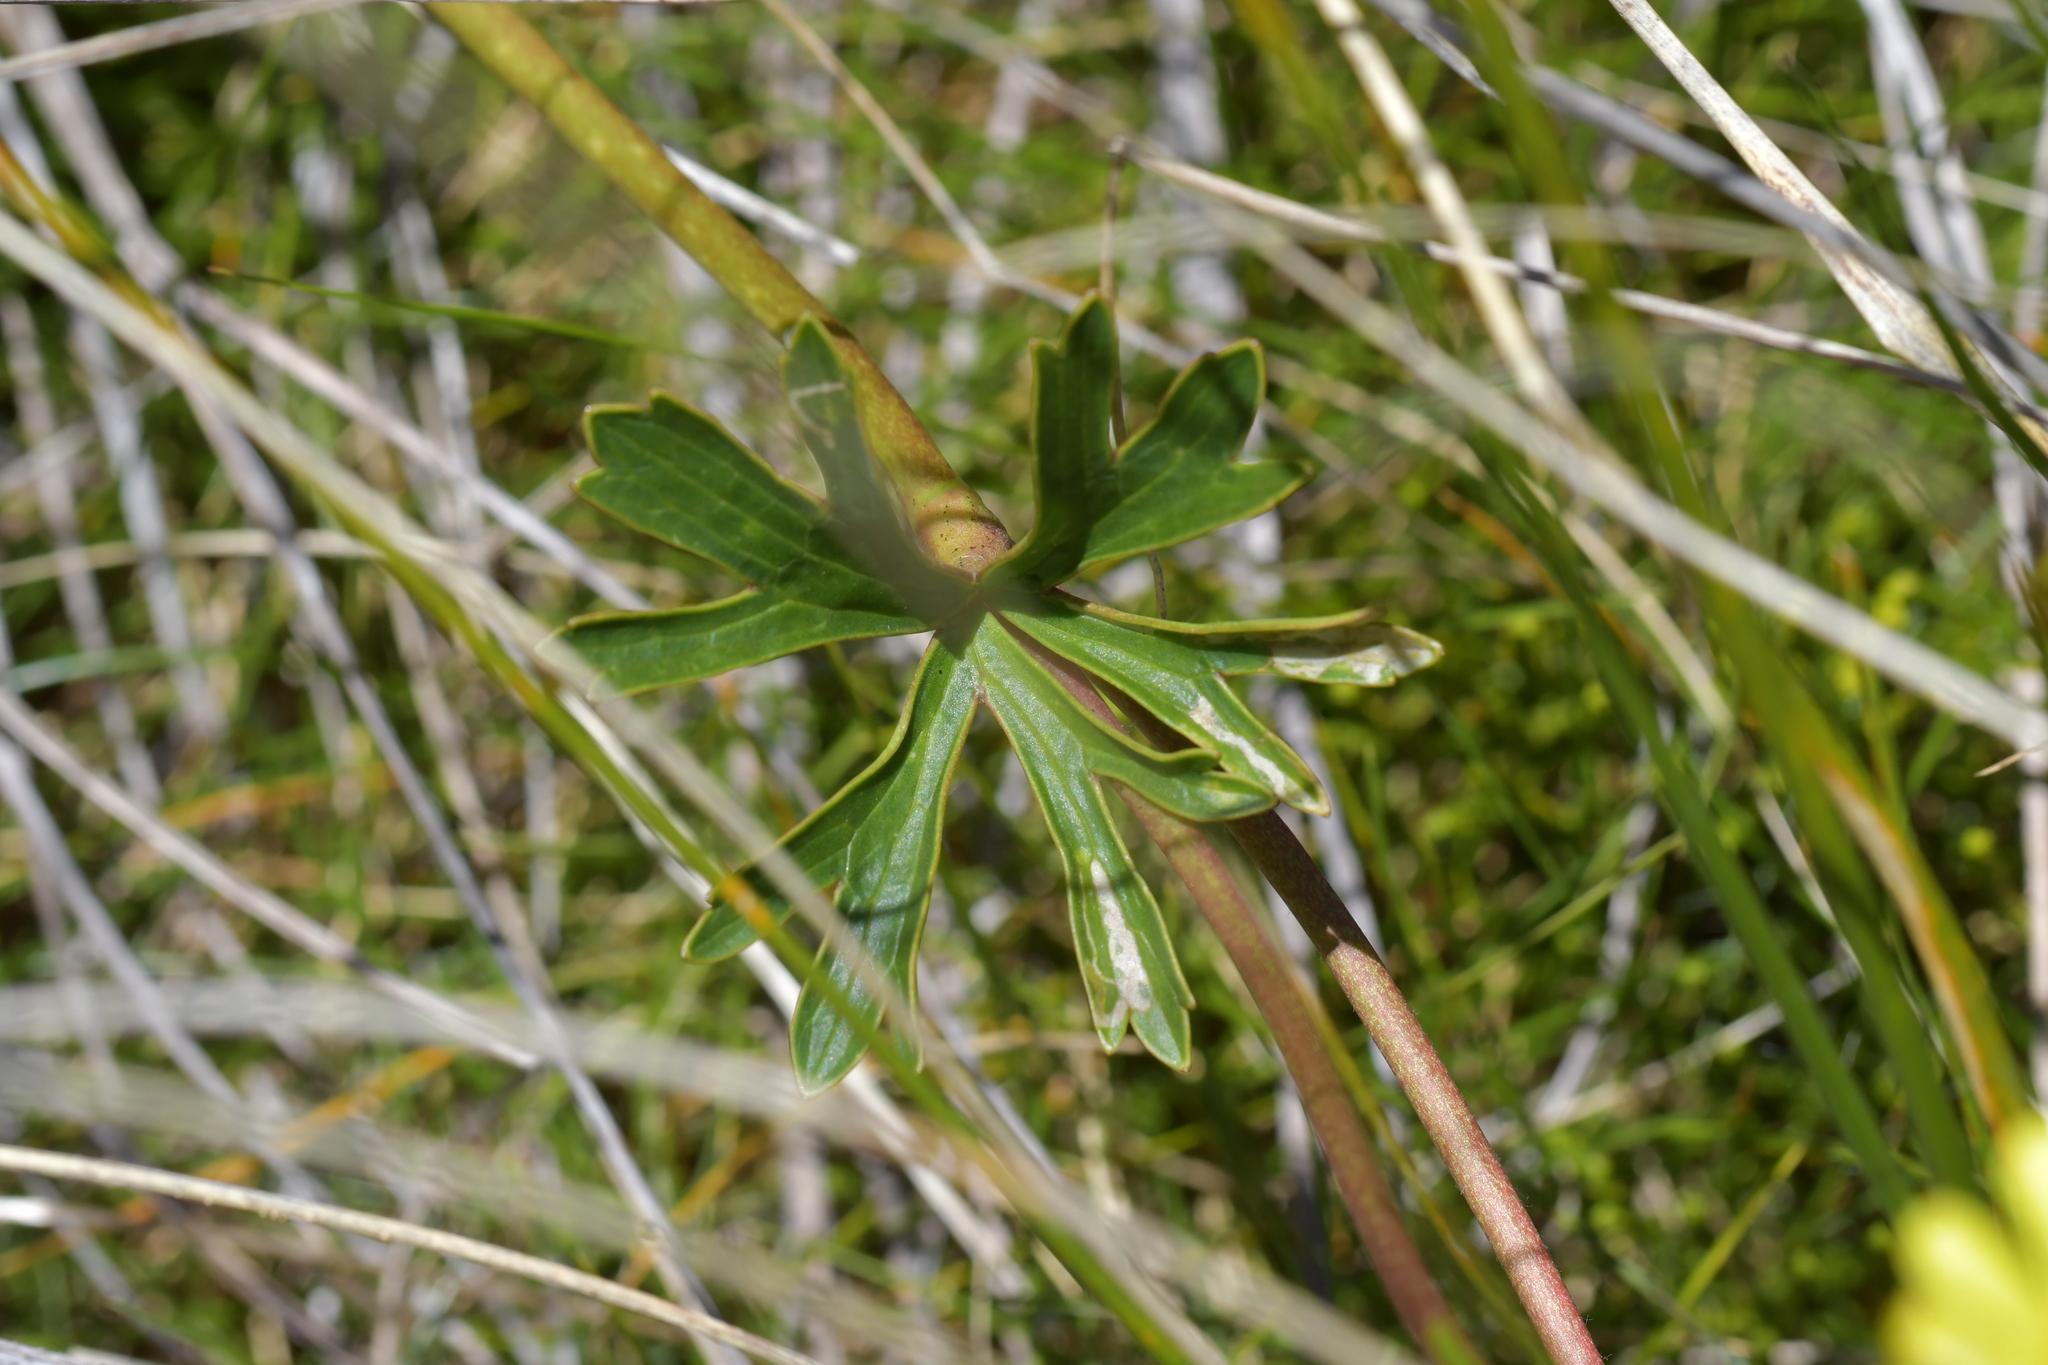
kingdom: Plantae
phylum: Tracheophyta
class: Magnoliopsida
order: Ranunculales
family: Ranunculaceae
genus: Ranunculus
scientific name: Ranunculus verticillatus
